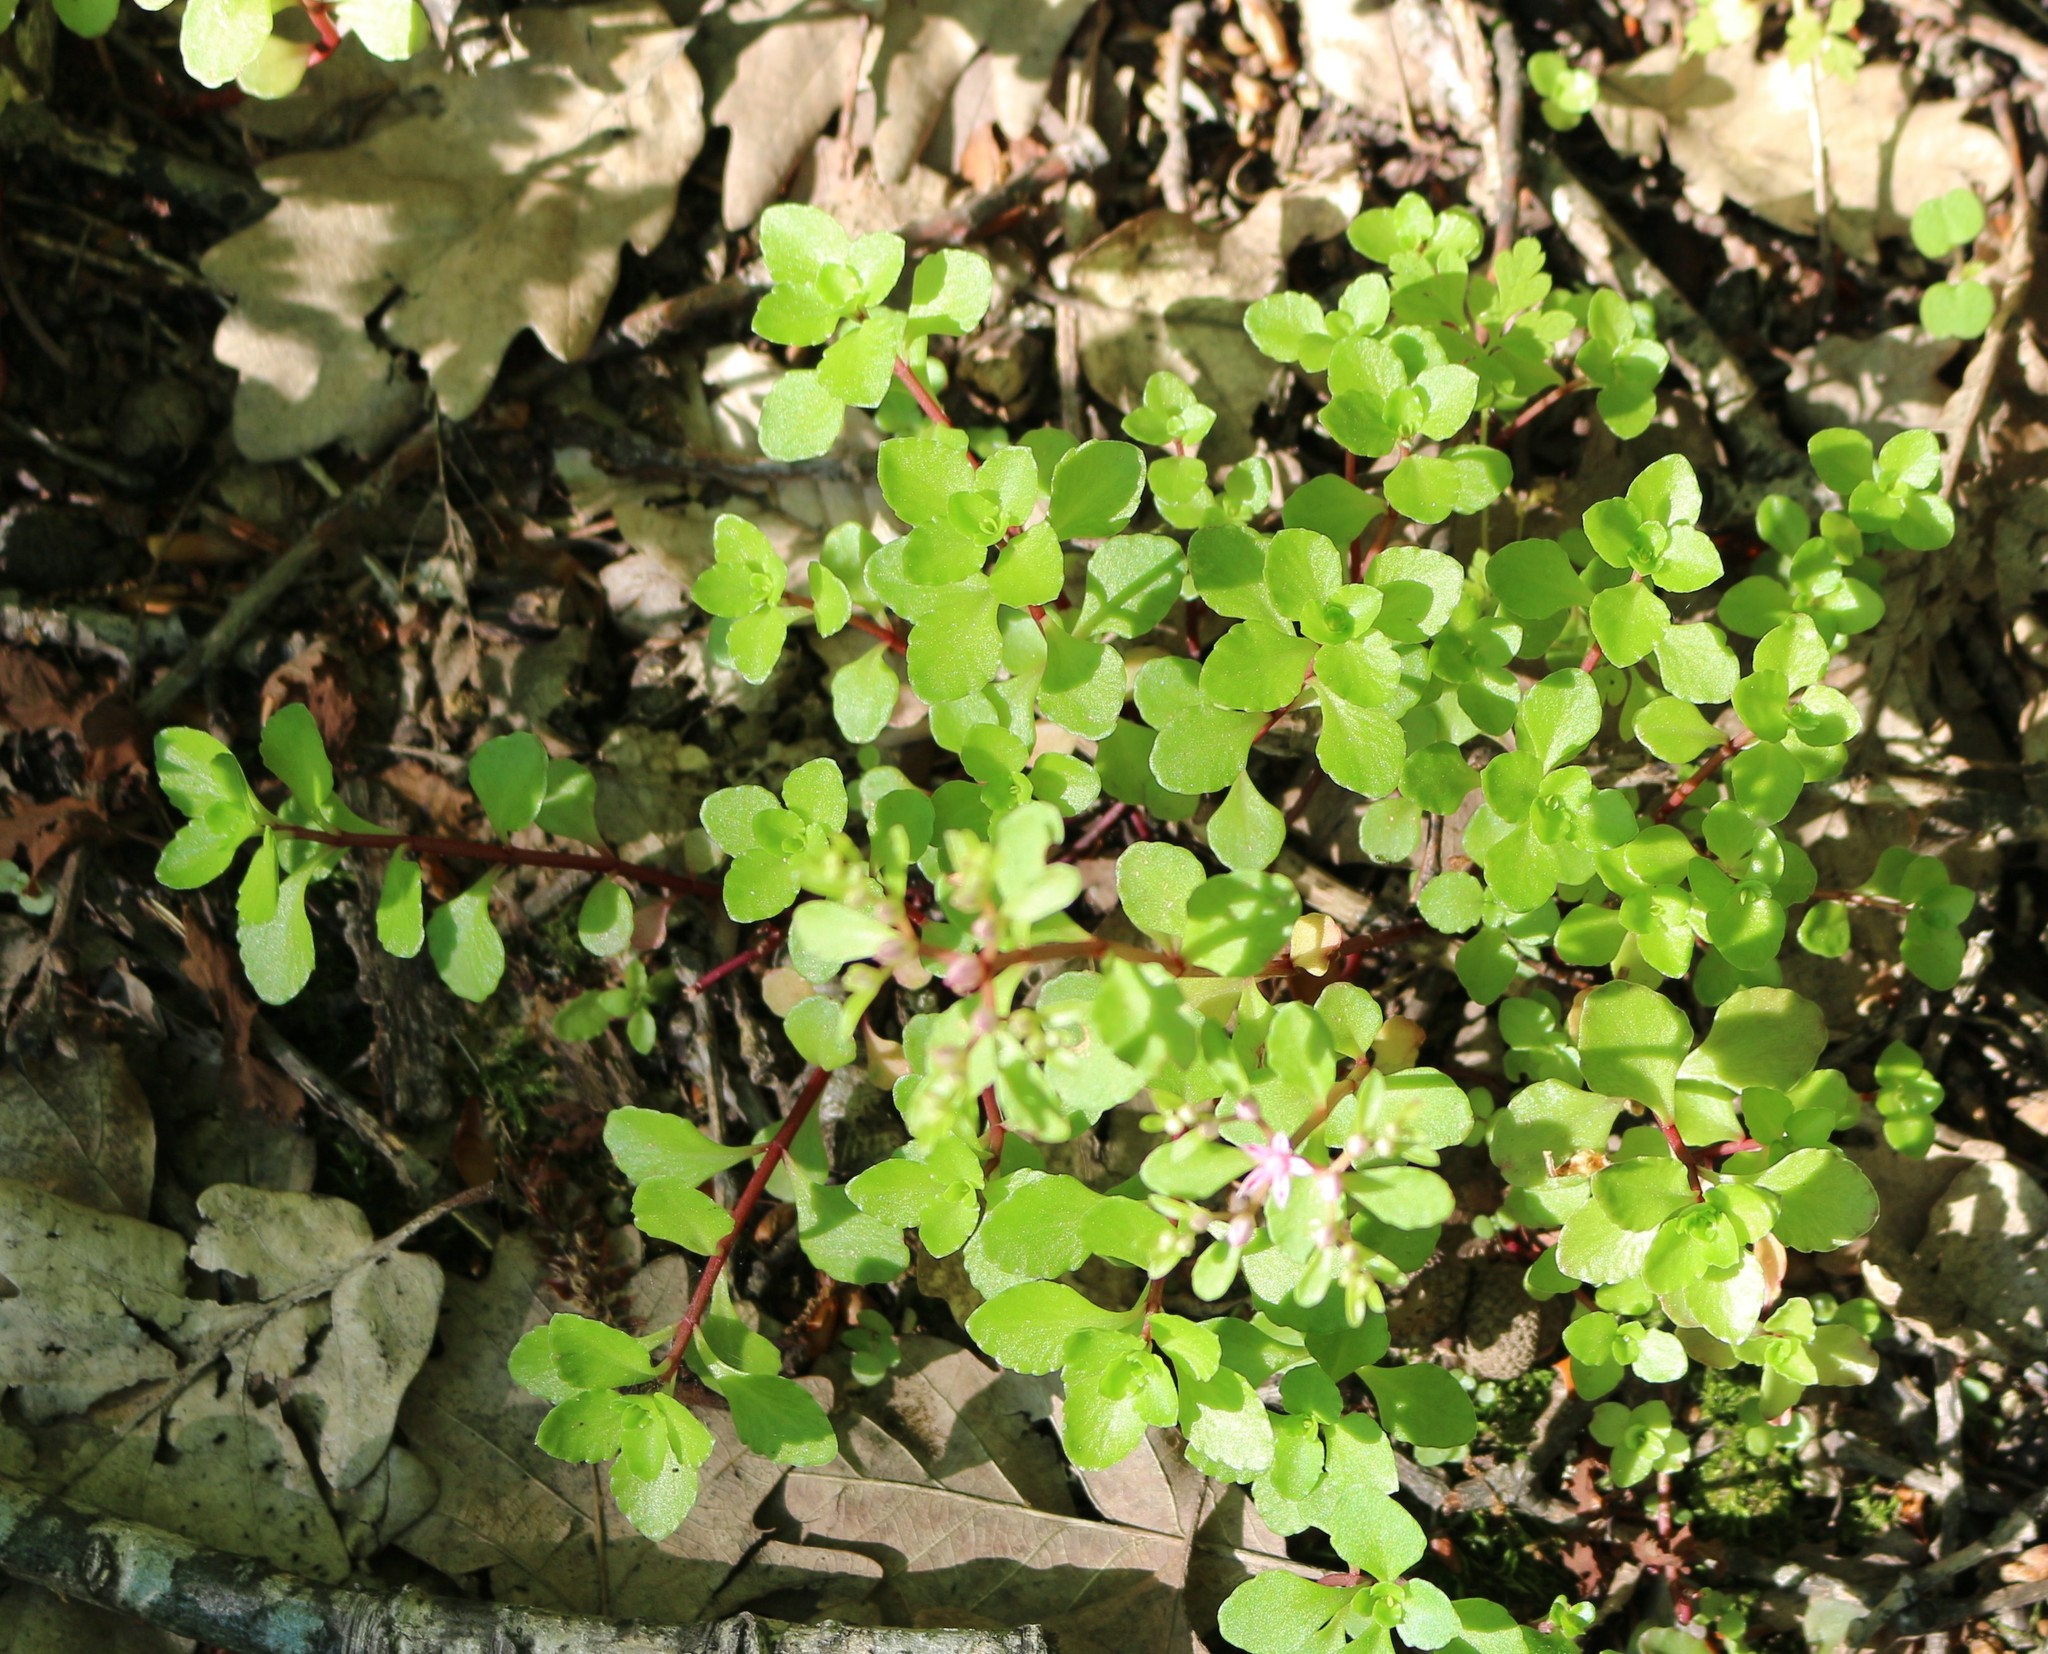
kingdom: Plantae
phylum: Tracheophyta
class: Magnoliopsida
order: Saxifragales
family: Crassulaceae
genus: Phedimus
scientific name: Phedimus stolonifer
